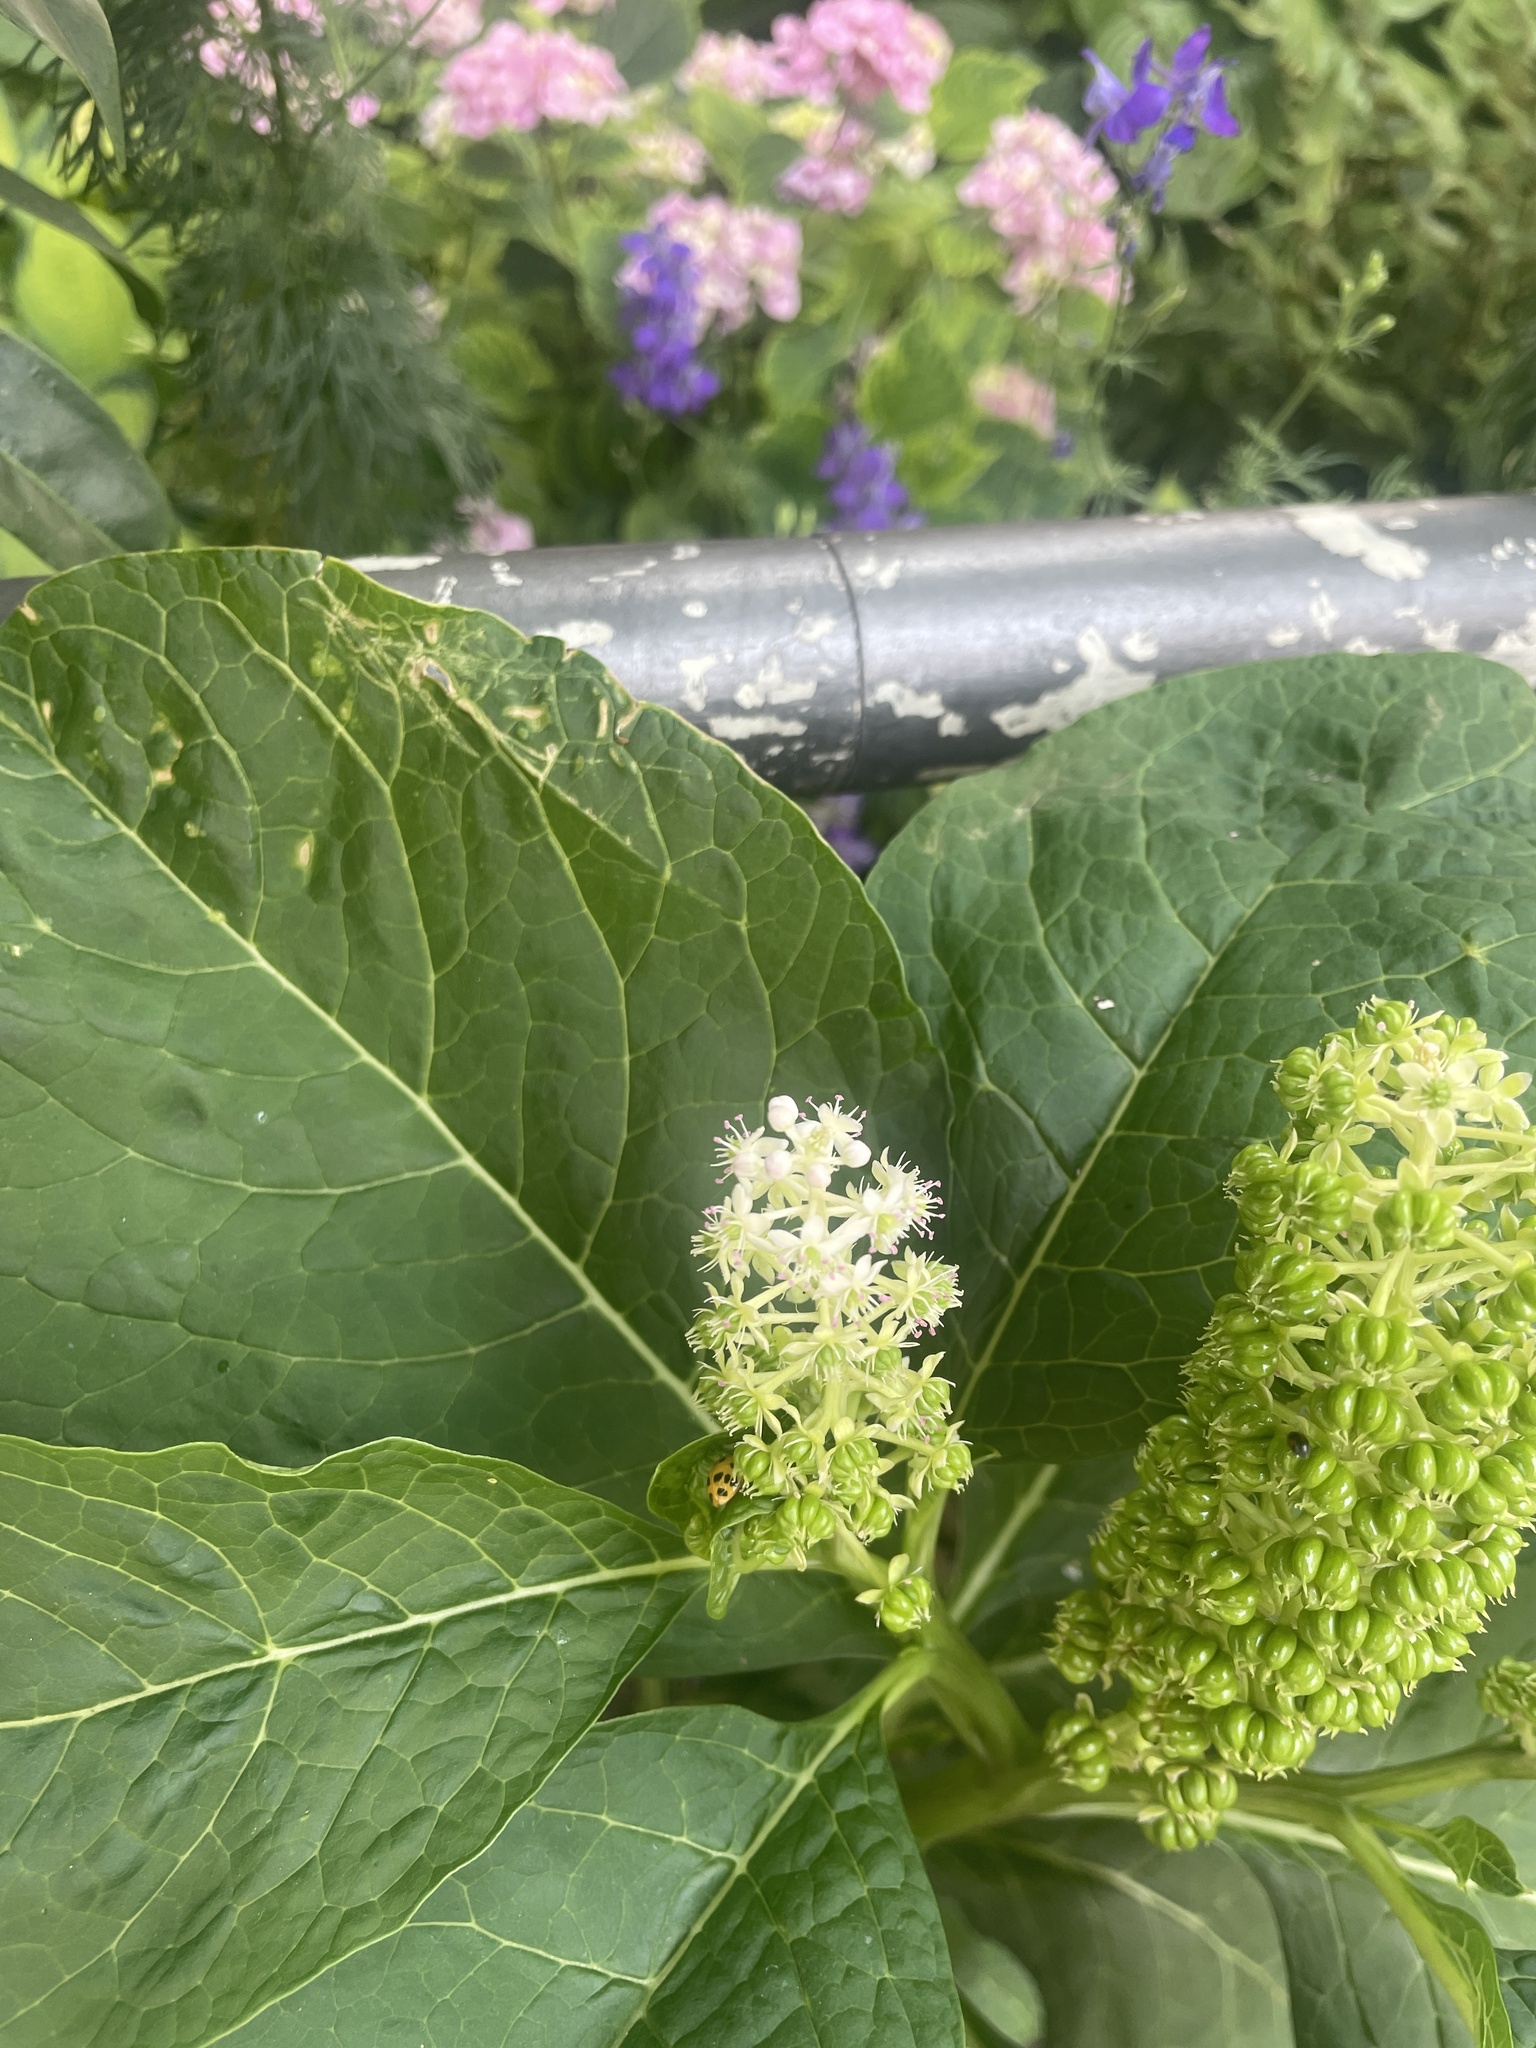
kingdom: Plantae
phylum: Tracheophyta
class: Magnoliopsida
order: Caryophyllales
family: Phytolaccaceae
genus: Phytolacca
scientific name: Phytolacca acinosa
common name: Indian pokeweed
